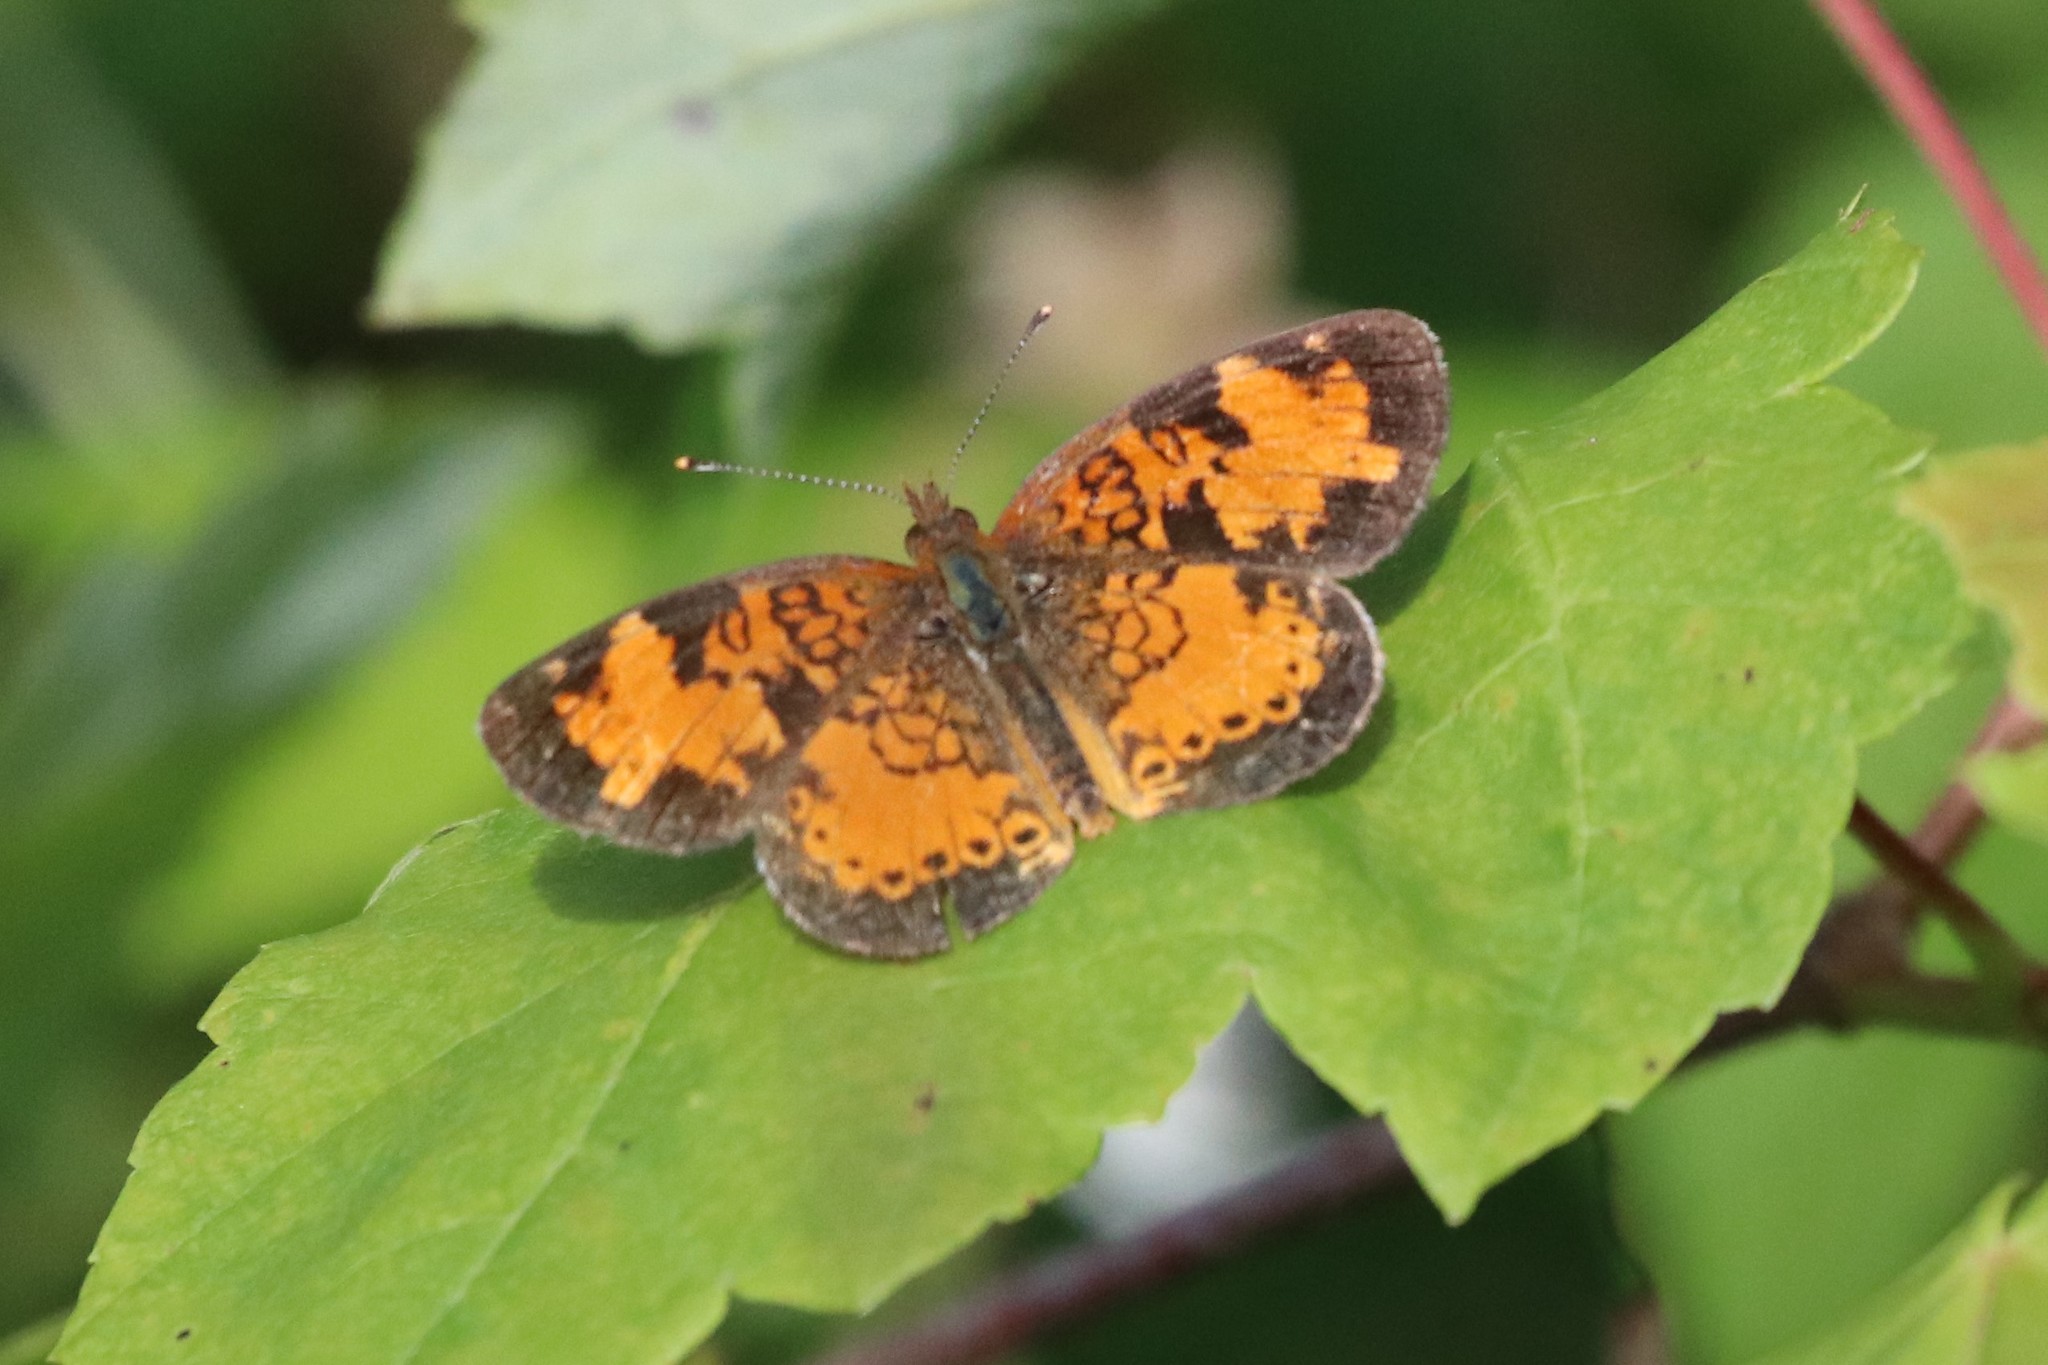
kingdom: Animalia
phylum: Arthropoda
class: Insecta
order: Lepidoptera
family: Nymphalidae
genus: Phyciodes
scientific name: Phyciodes tharos
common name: Pearl crescent
